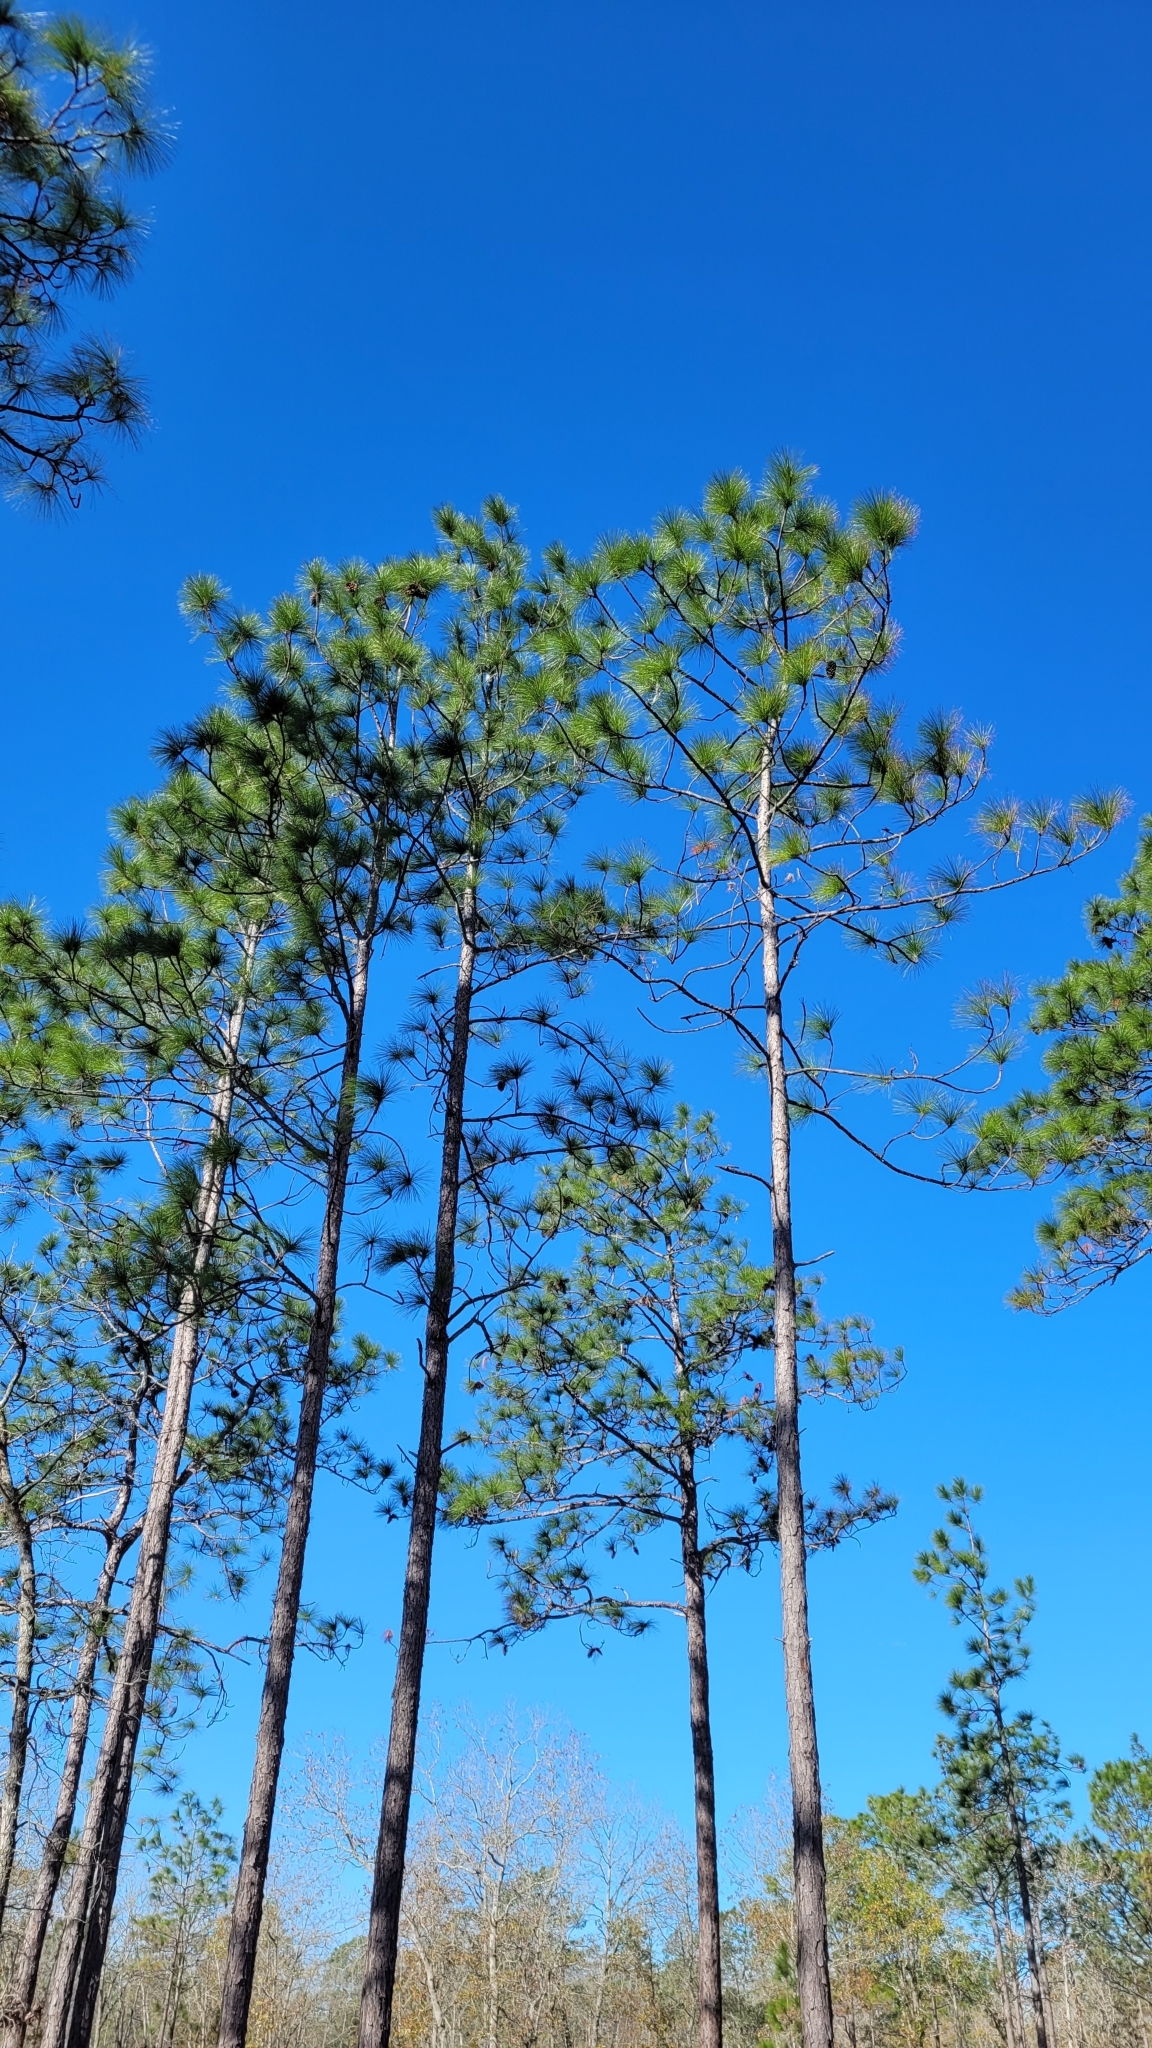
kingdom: Plantae
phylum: Tracheophyta
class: Pinopsida
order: Pinales
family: Pinaceae
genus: Pinus
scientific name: Pinus palustris
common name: Longleaf pine
